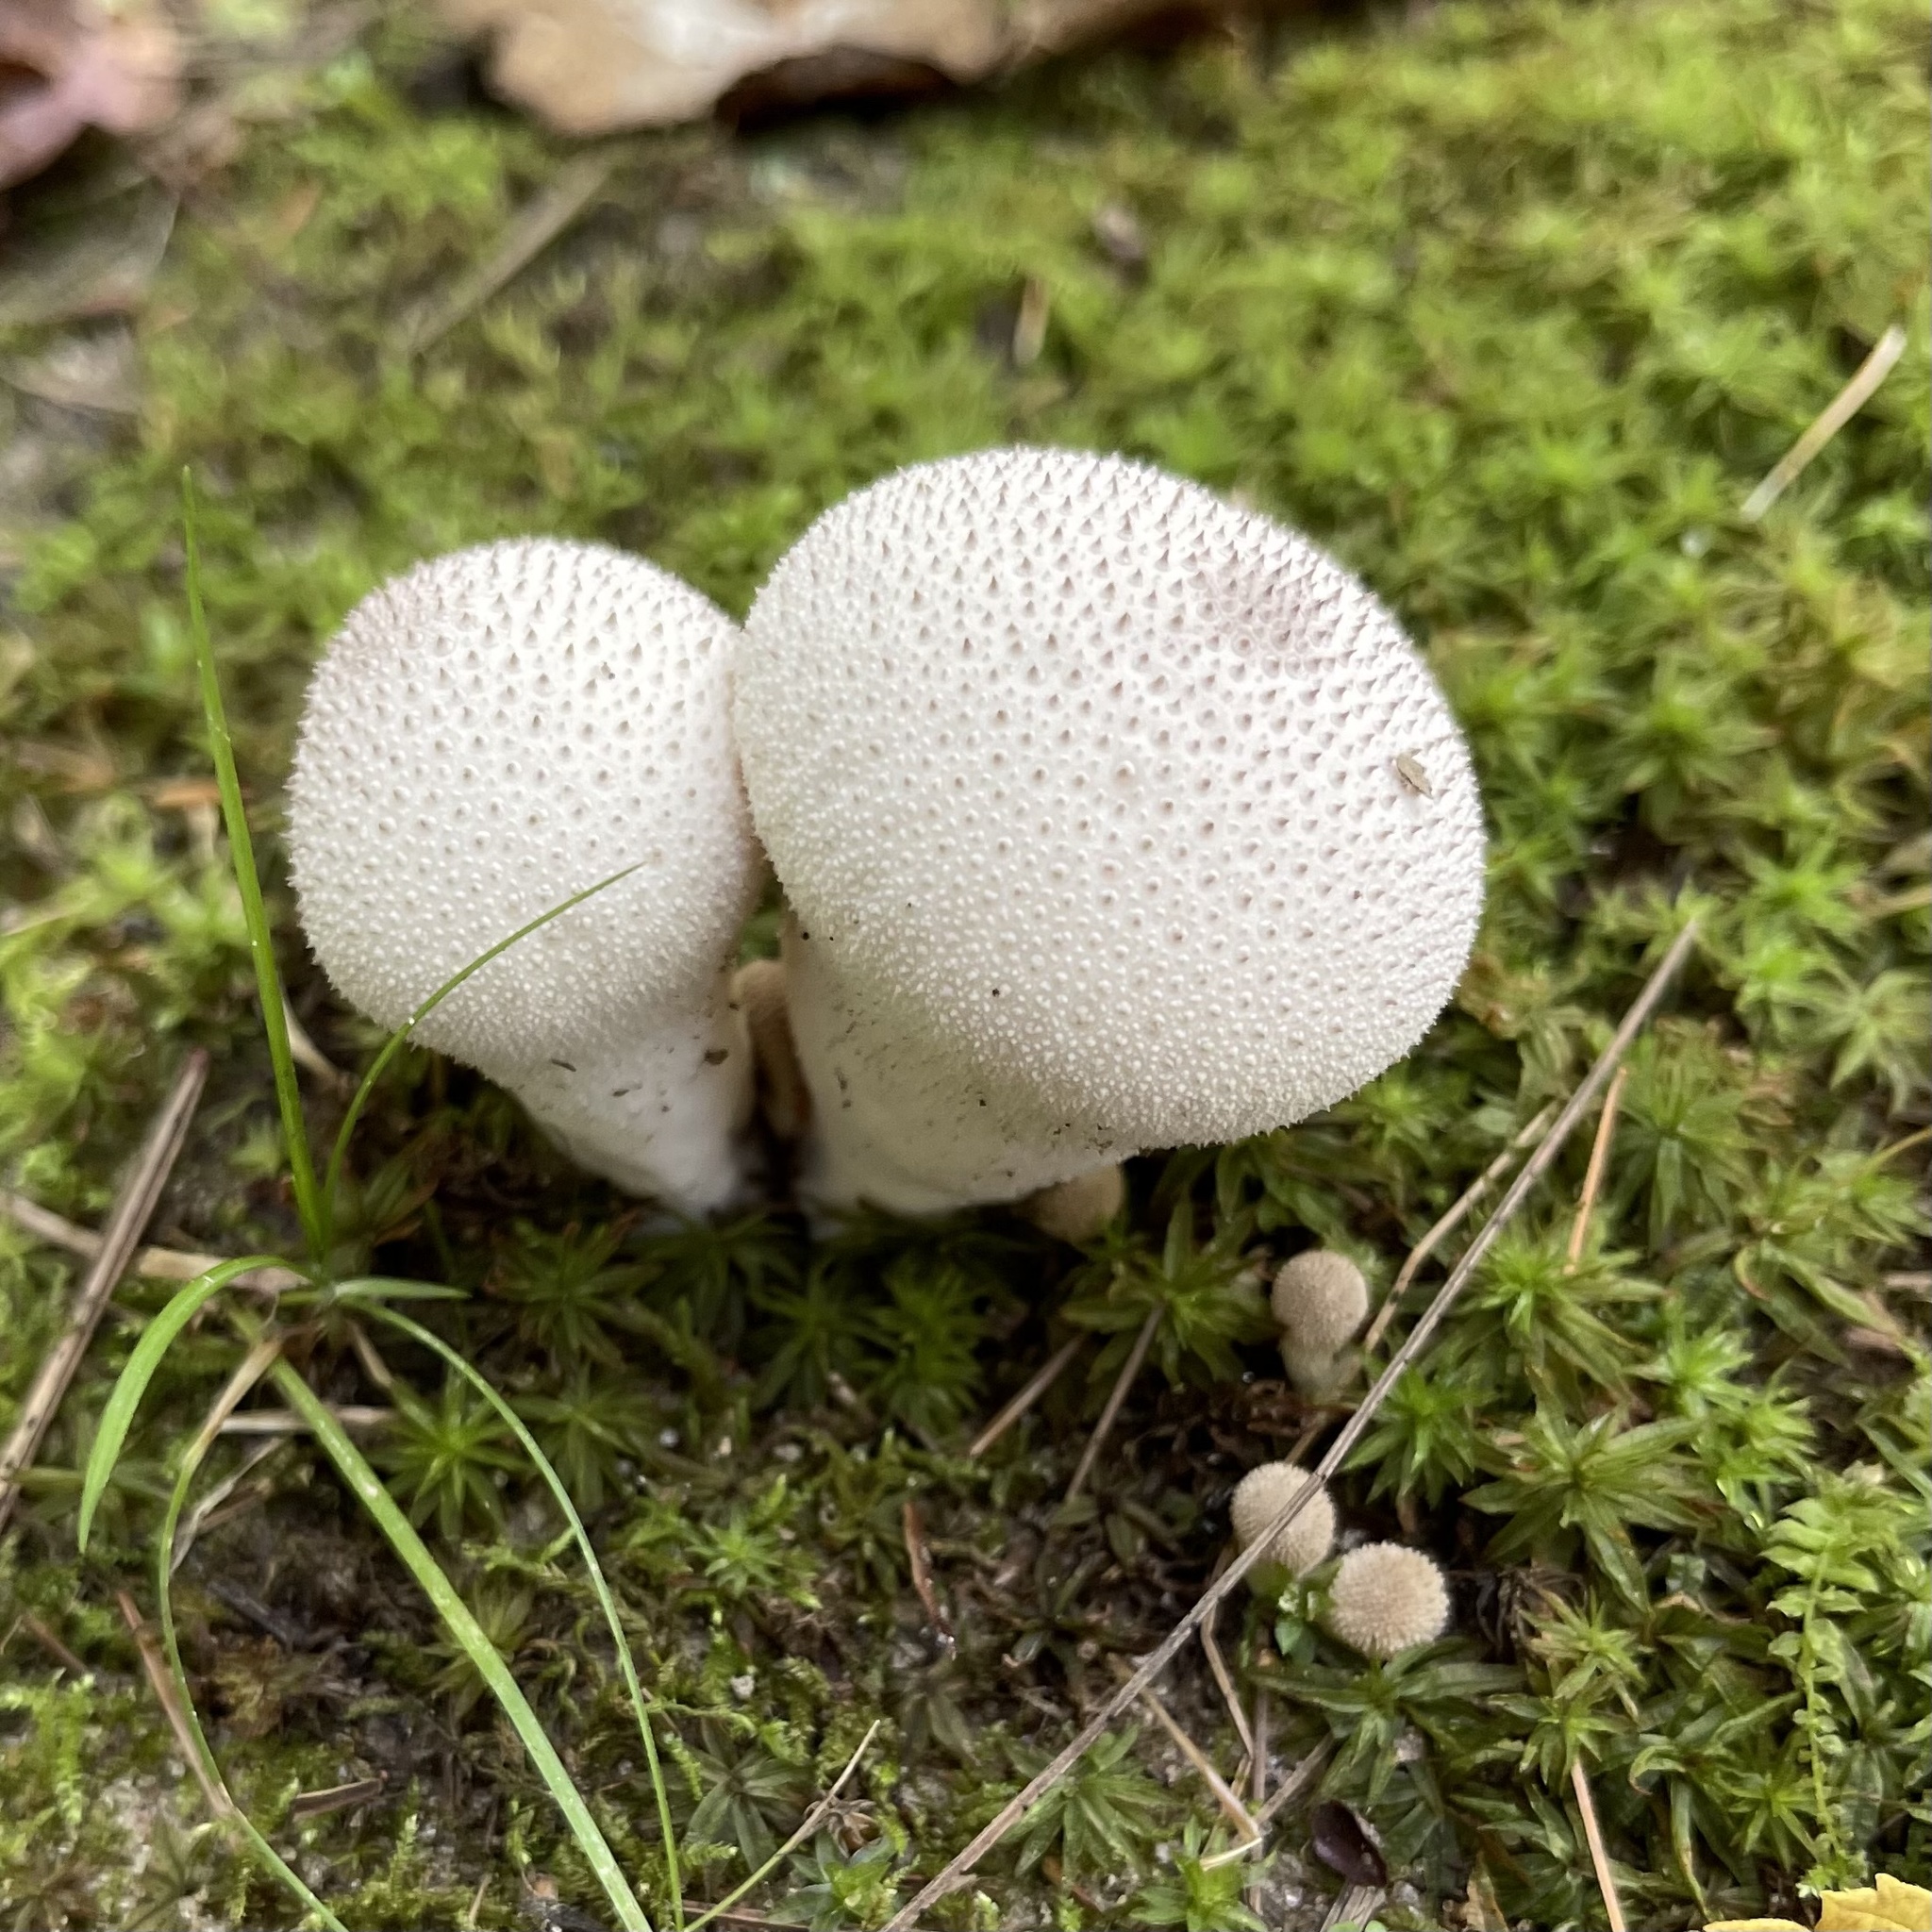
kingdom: Fungi
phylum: Basidiomycota
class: Agaricomycetes
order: Agaricales
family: Lycoperdaceae
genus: Lycoperdon
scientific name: Lycoperdon perlatum
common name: Common puffball
